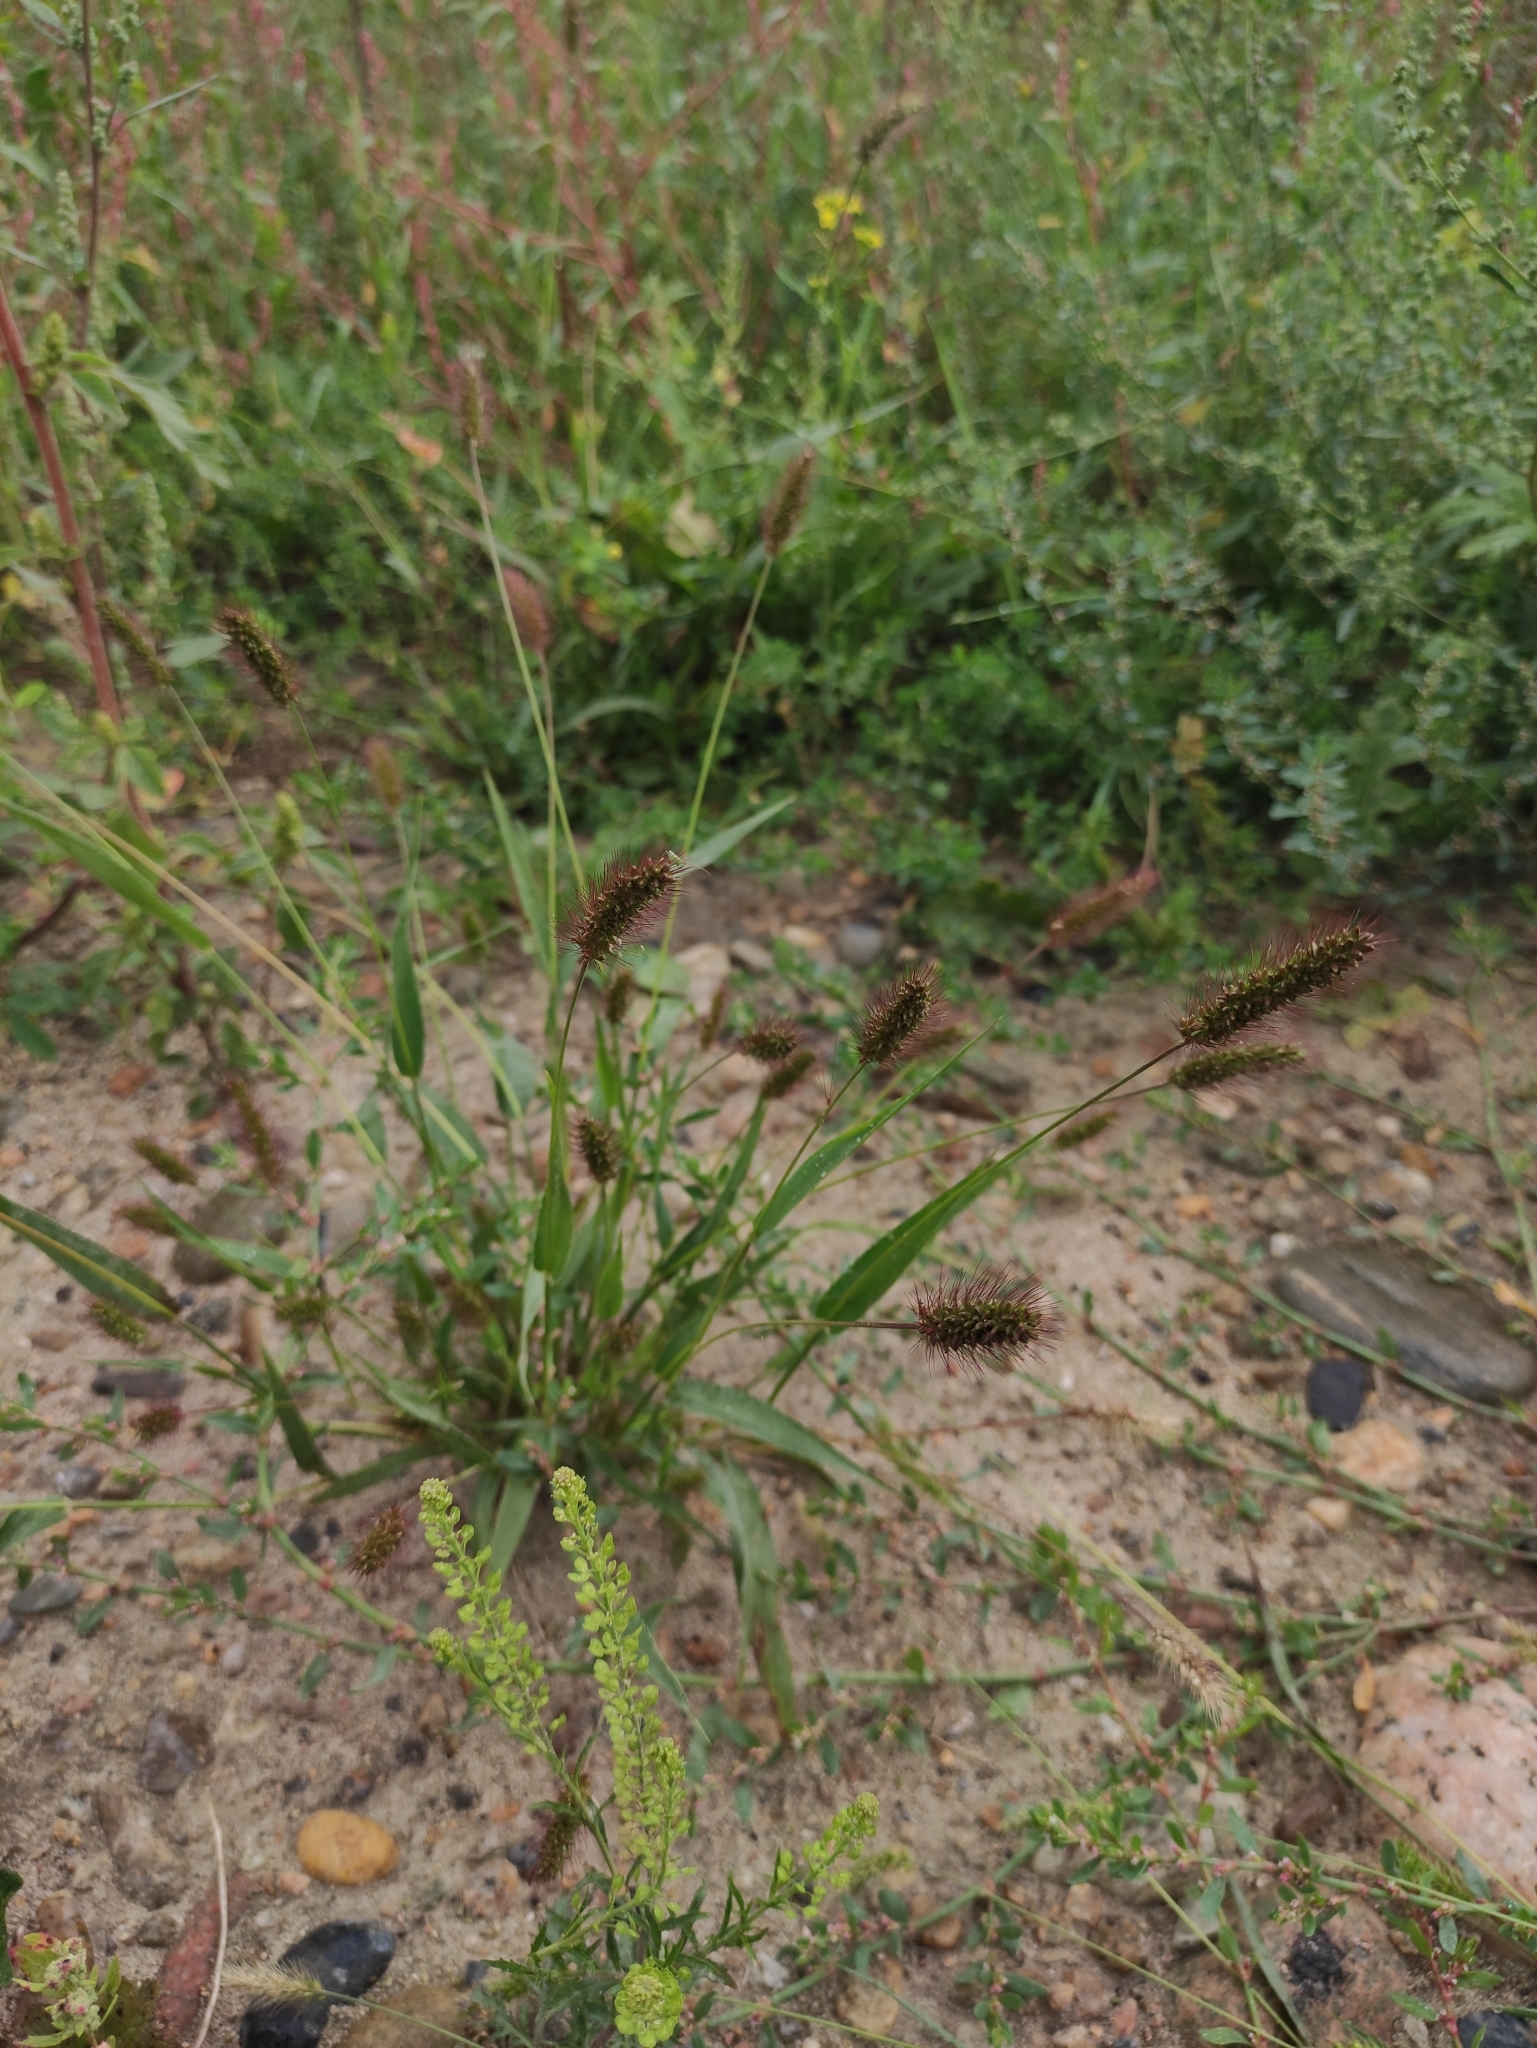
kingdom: Plantae
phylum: Tracheophyta
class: Liliopsida
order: Poales
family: Poaceae
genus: Setaria
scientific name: Setaria viridis
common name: Green bristlegrass
